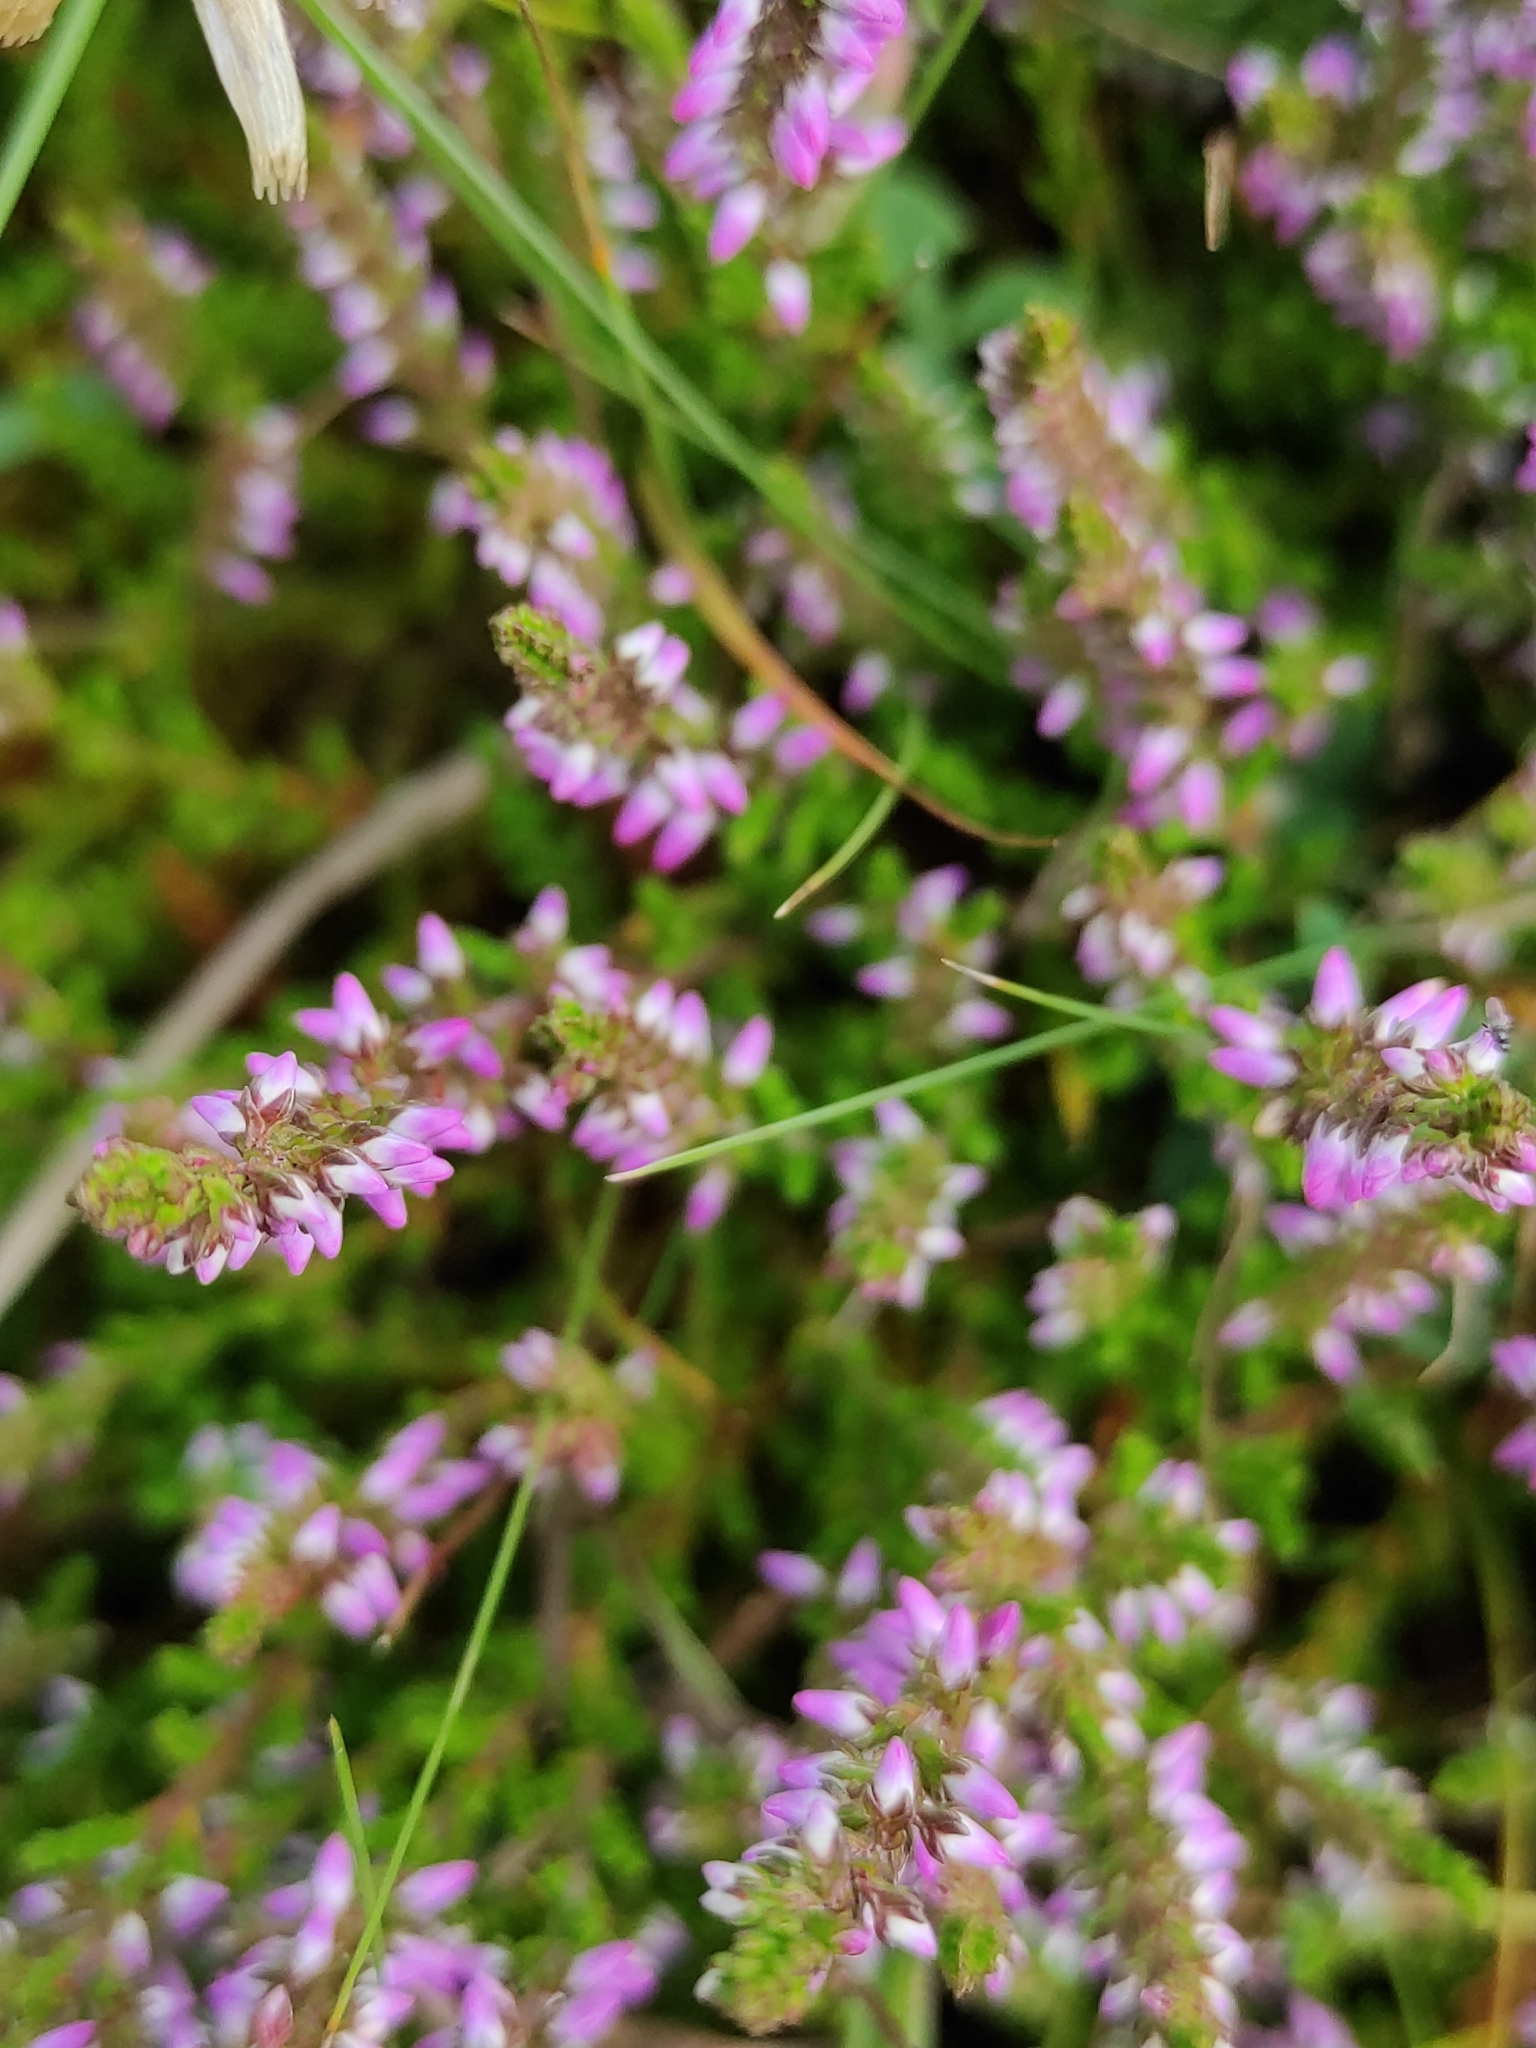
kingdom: Plantae
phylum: Tracheophyta
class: Magnoliopsida
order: Ericales
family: Ericaceae
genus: Calluna
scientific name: Calluna vulgaris
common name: Heather
